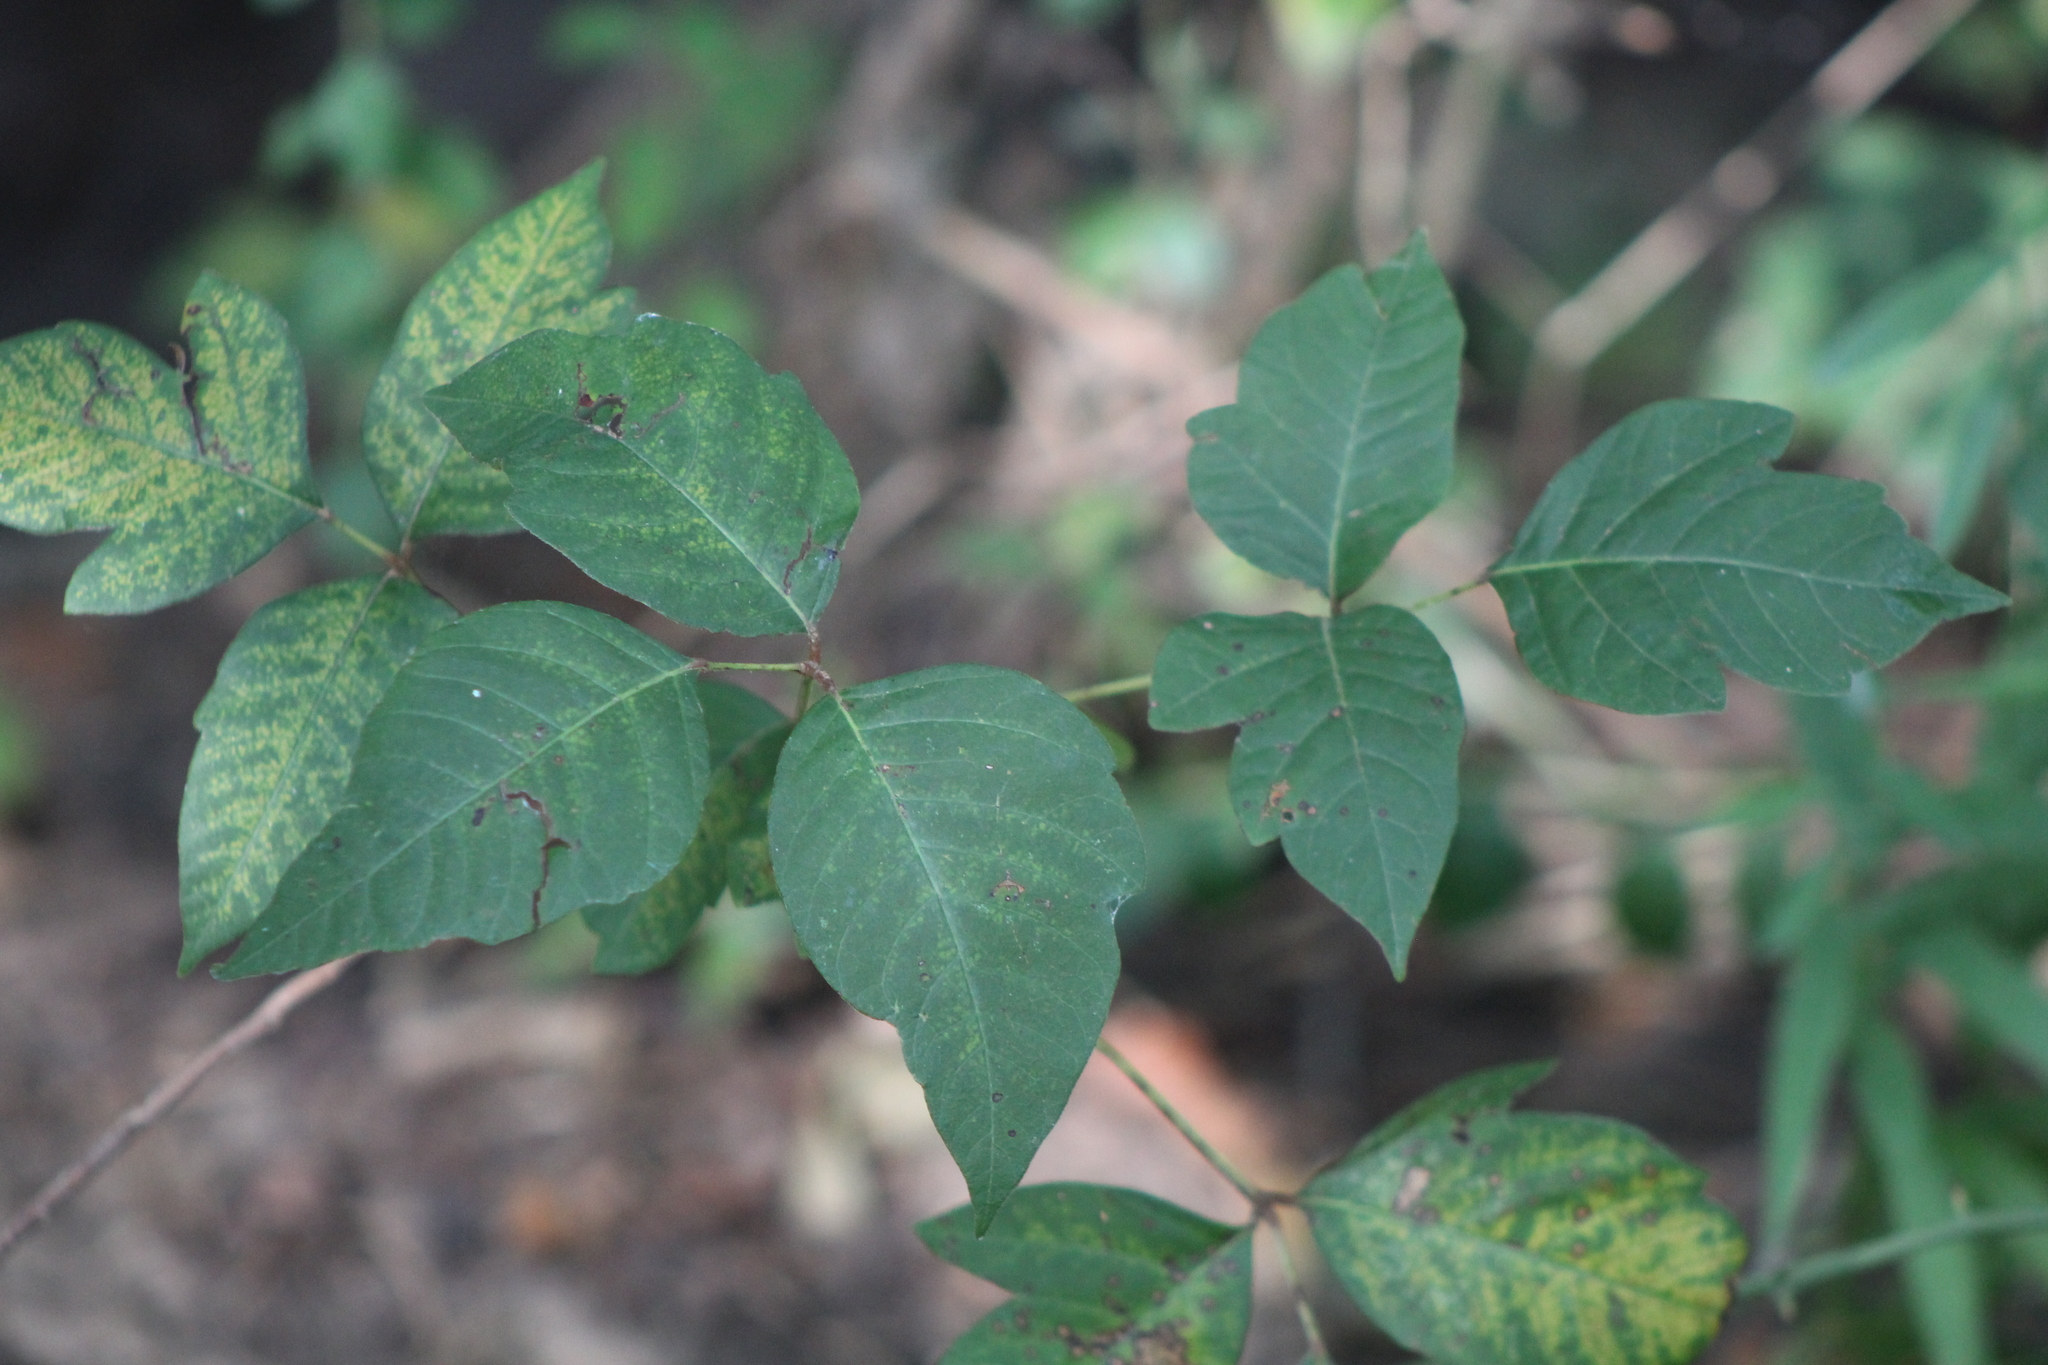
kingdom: Plantae
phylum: Tracheophyta
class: Magnoliopsida
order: Sapindales
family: Anacardiaceae
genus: Toxicodendron
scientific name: Toxicodendron radicans
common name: Poison ivy
